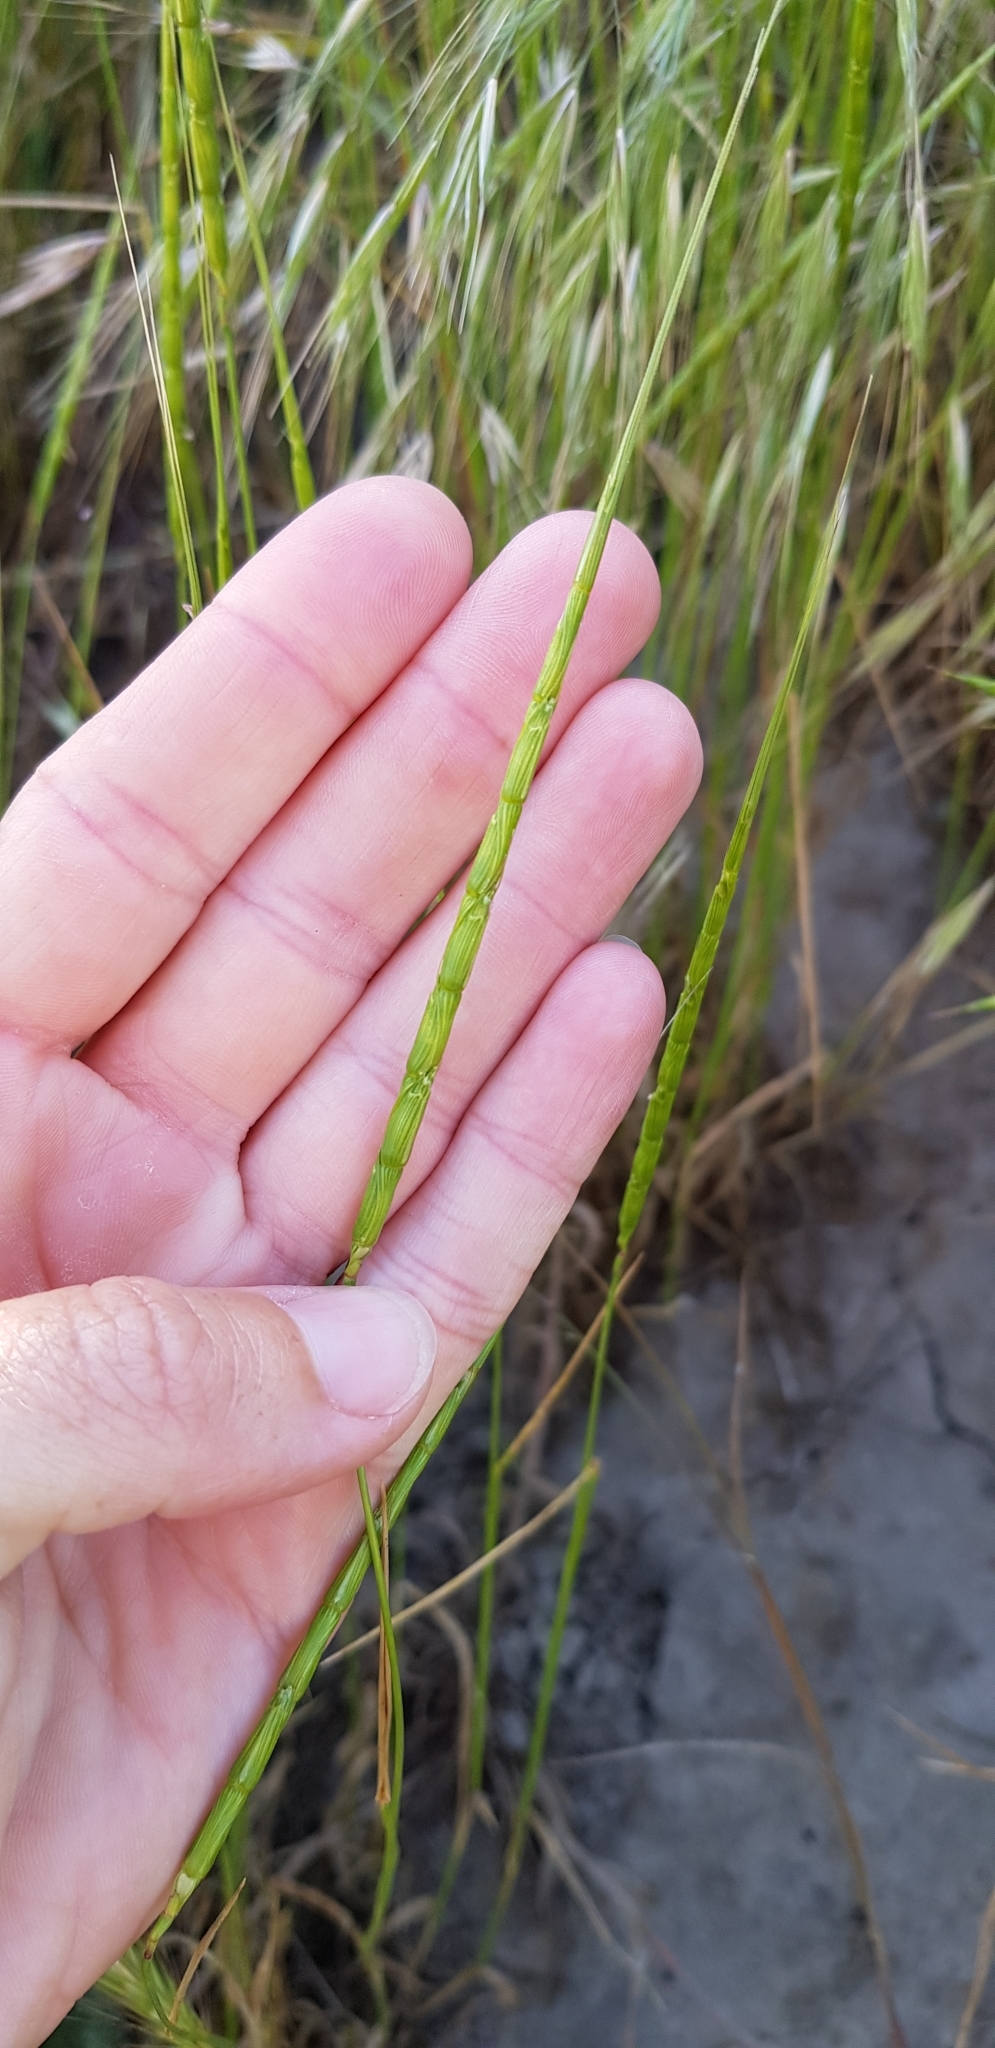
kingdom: Plantae
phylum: Tracheophyta
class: Liliopsida
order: Poales
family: Poaceae
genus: Aegilops
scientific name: Aegilops cylindrica
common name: Jointed goatgrass
